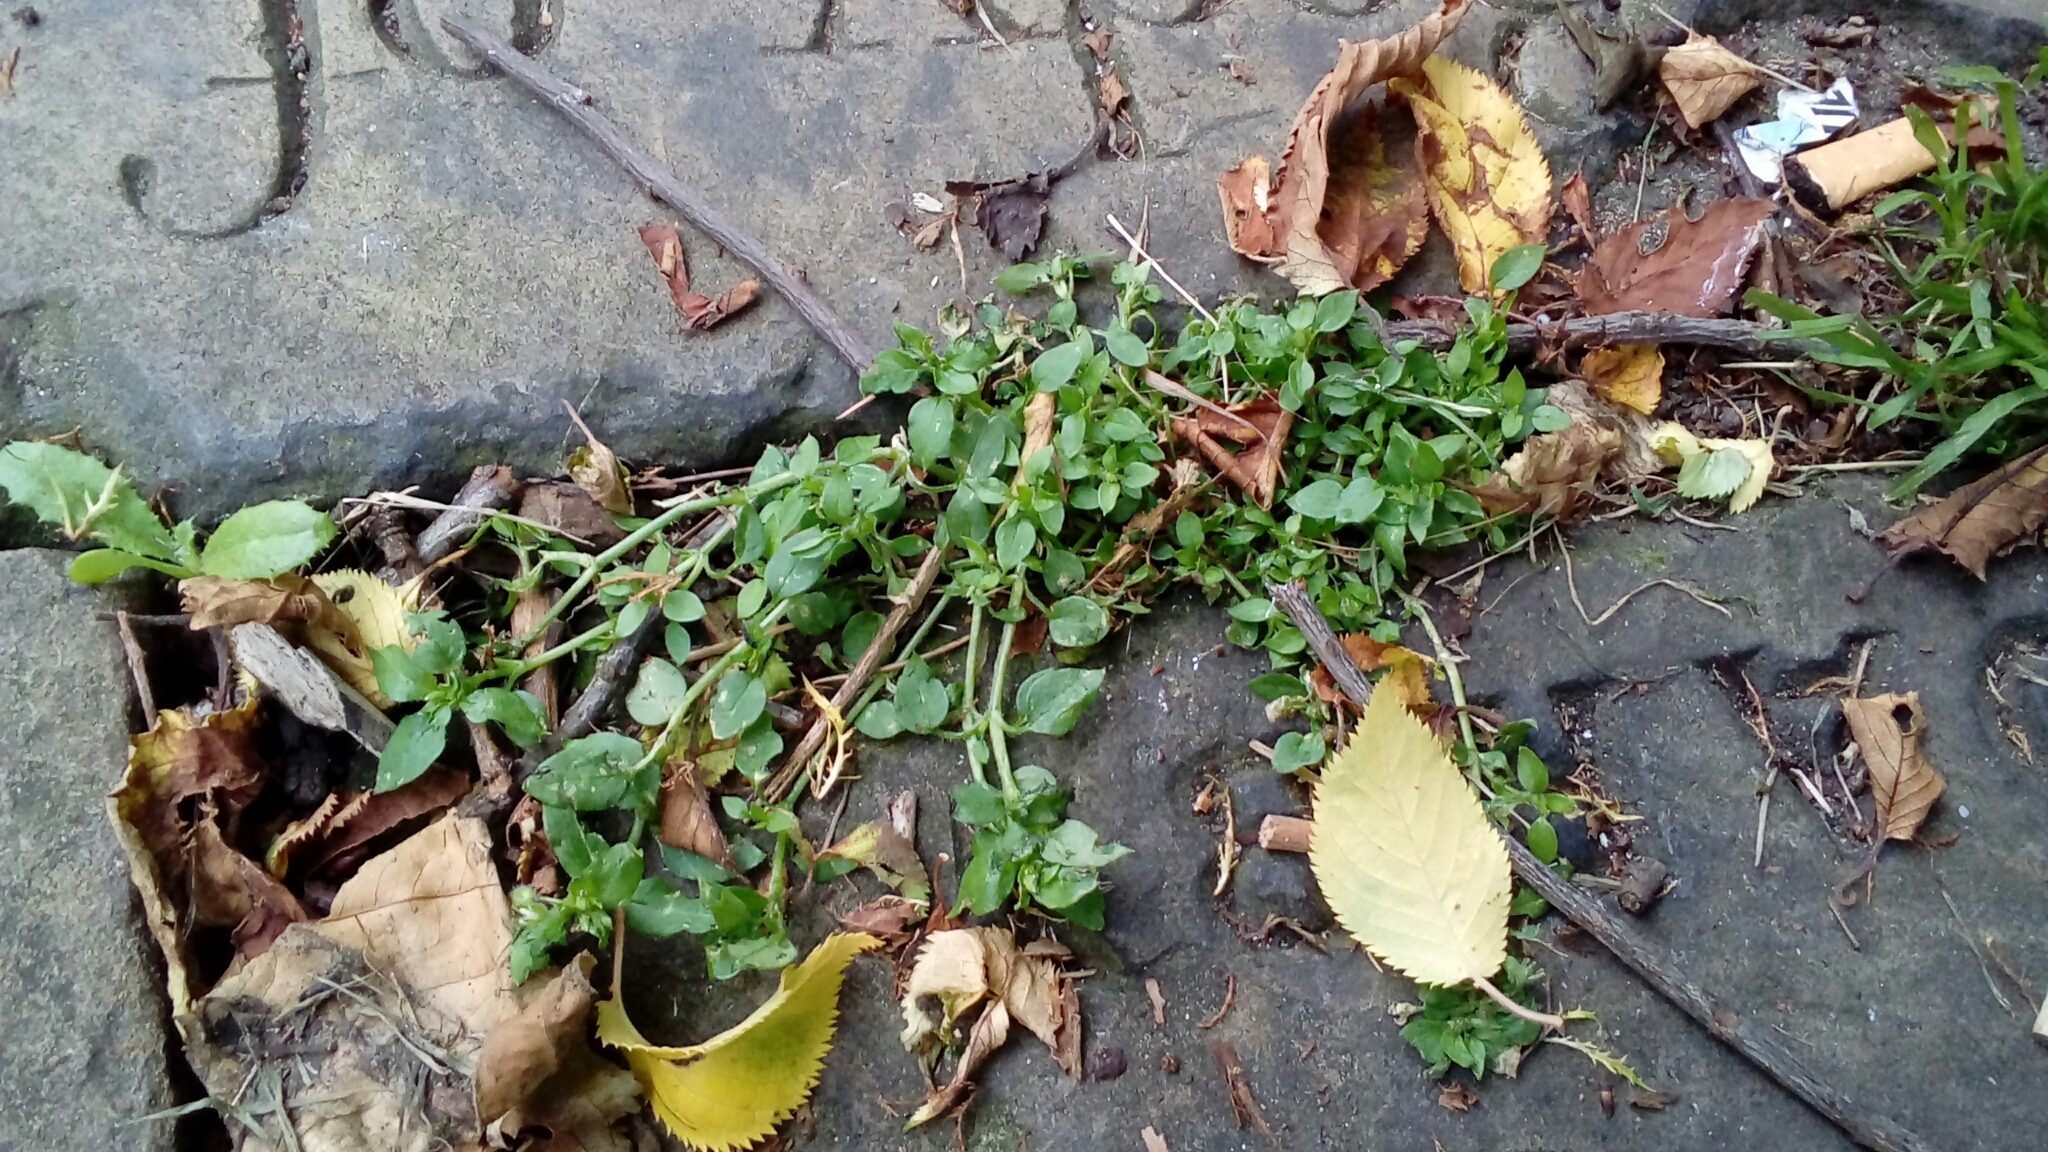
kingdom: Plantae
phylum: Tracheophyta
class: Magnoliopsida
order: Caryophyllales
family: Caryophyllaceae
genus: Stellaria
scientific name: Stellaria media
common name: Common chickweed
